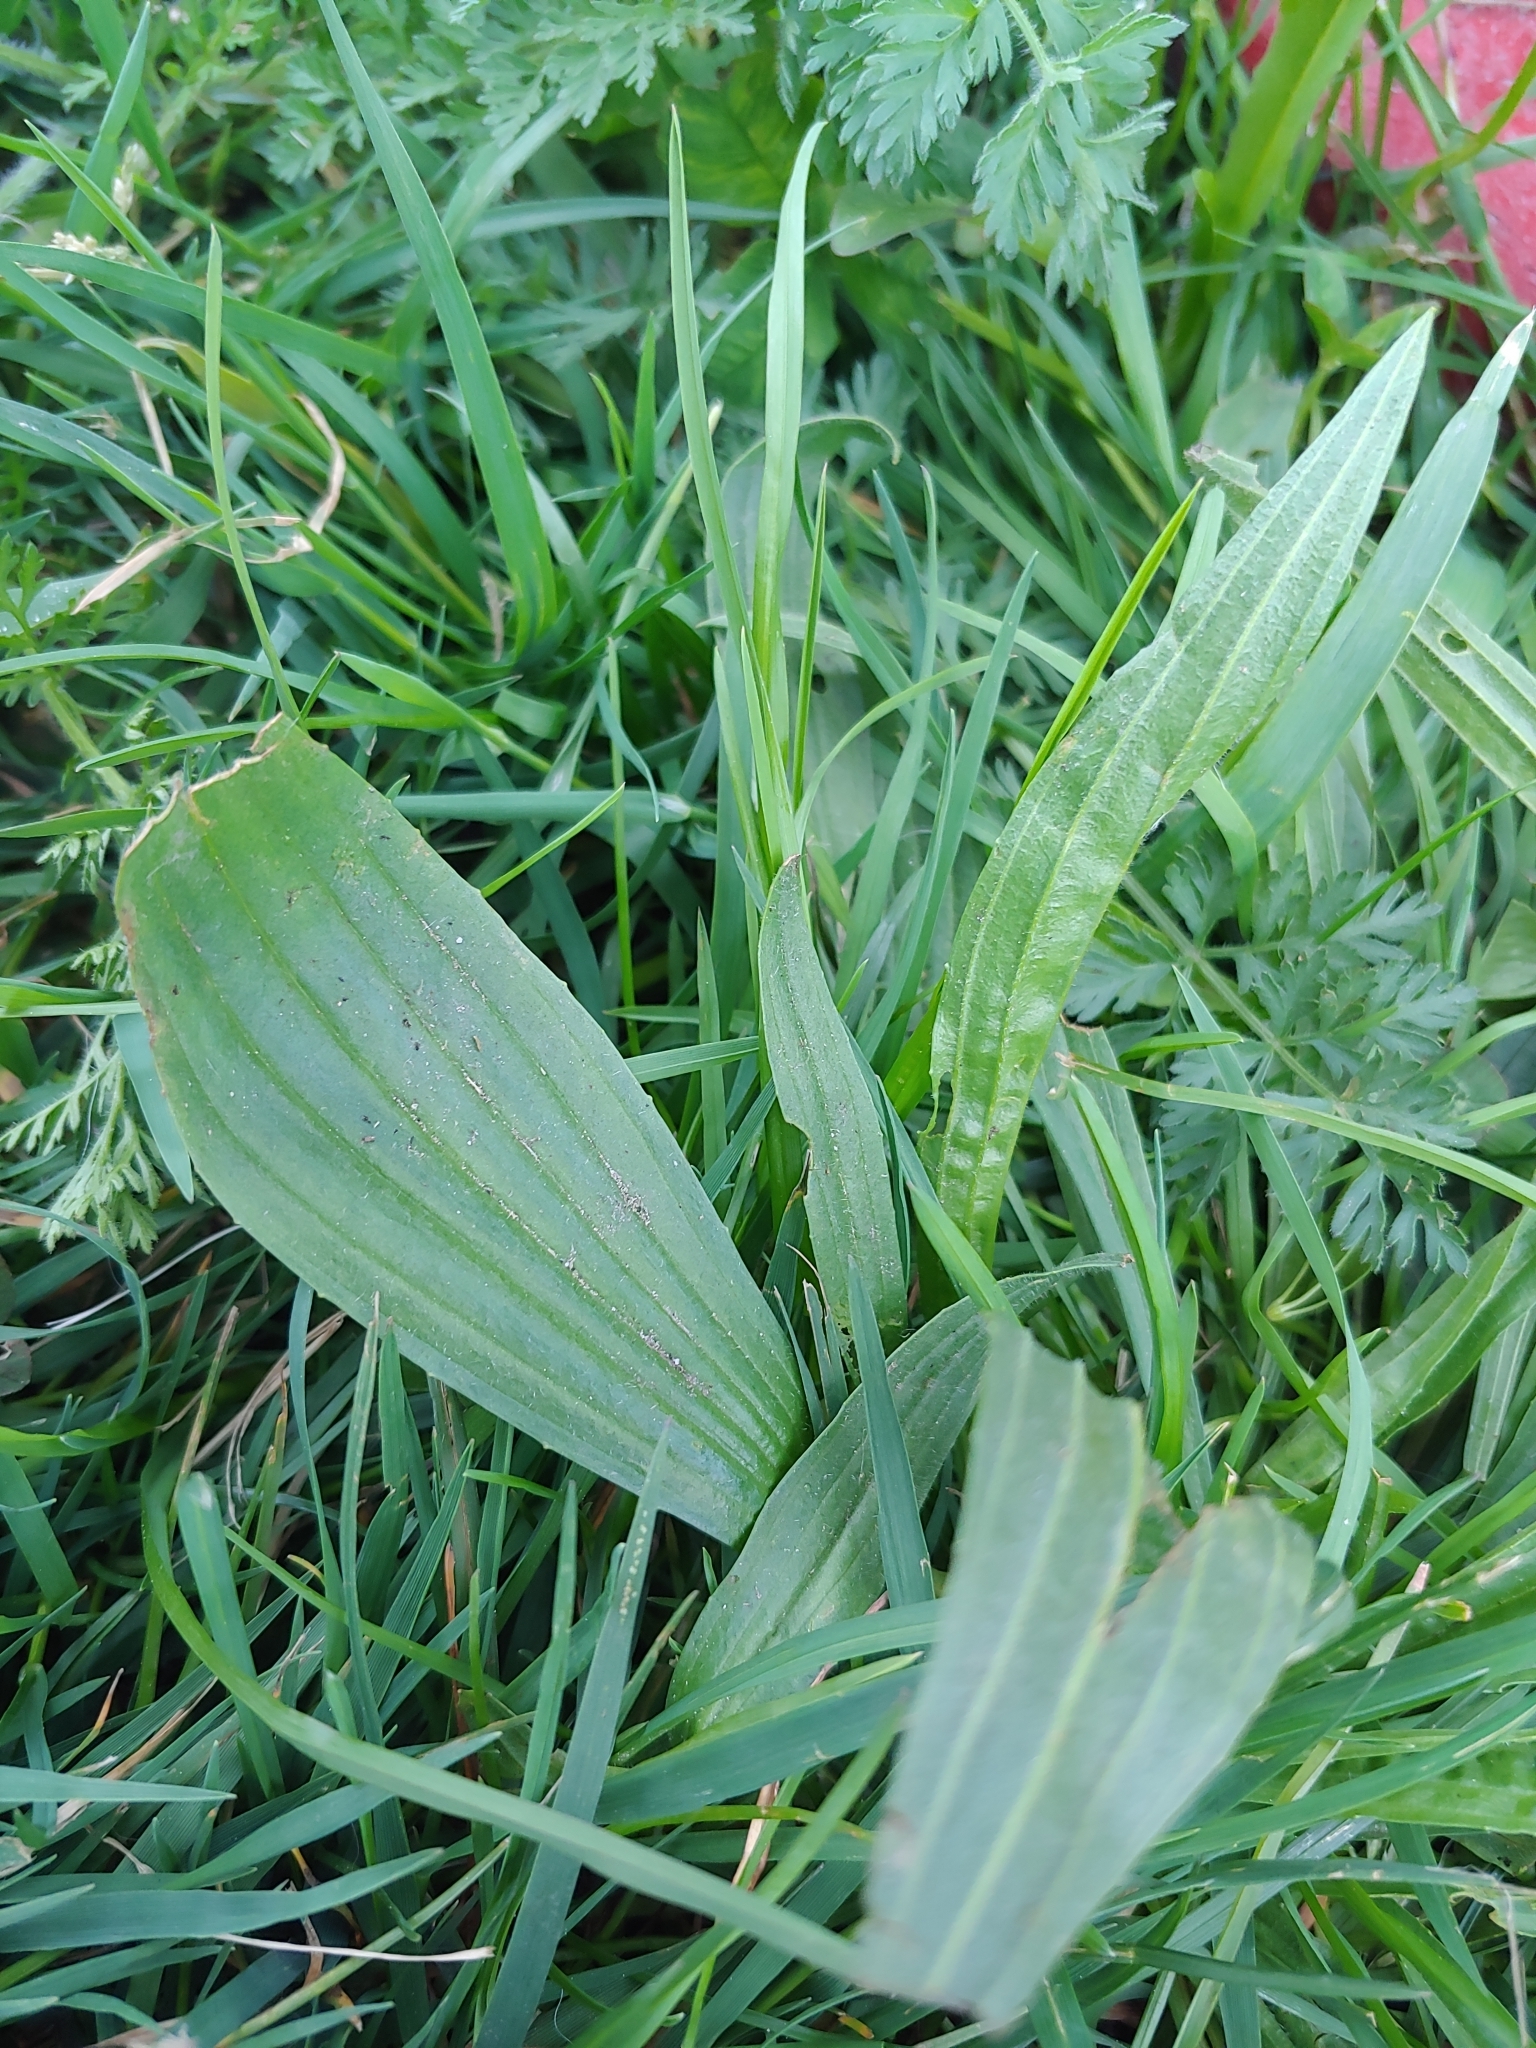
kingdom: Plantae
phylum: Tracheophyta
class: Magnoliopsida
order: Lamiales
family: Plantaginaceae
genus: Plantago
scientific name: Plantago lanceolata
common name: Ribwort plantain
